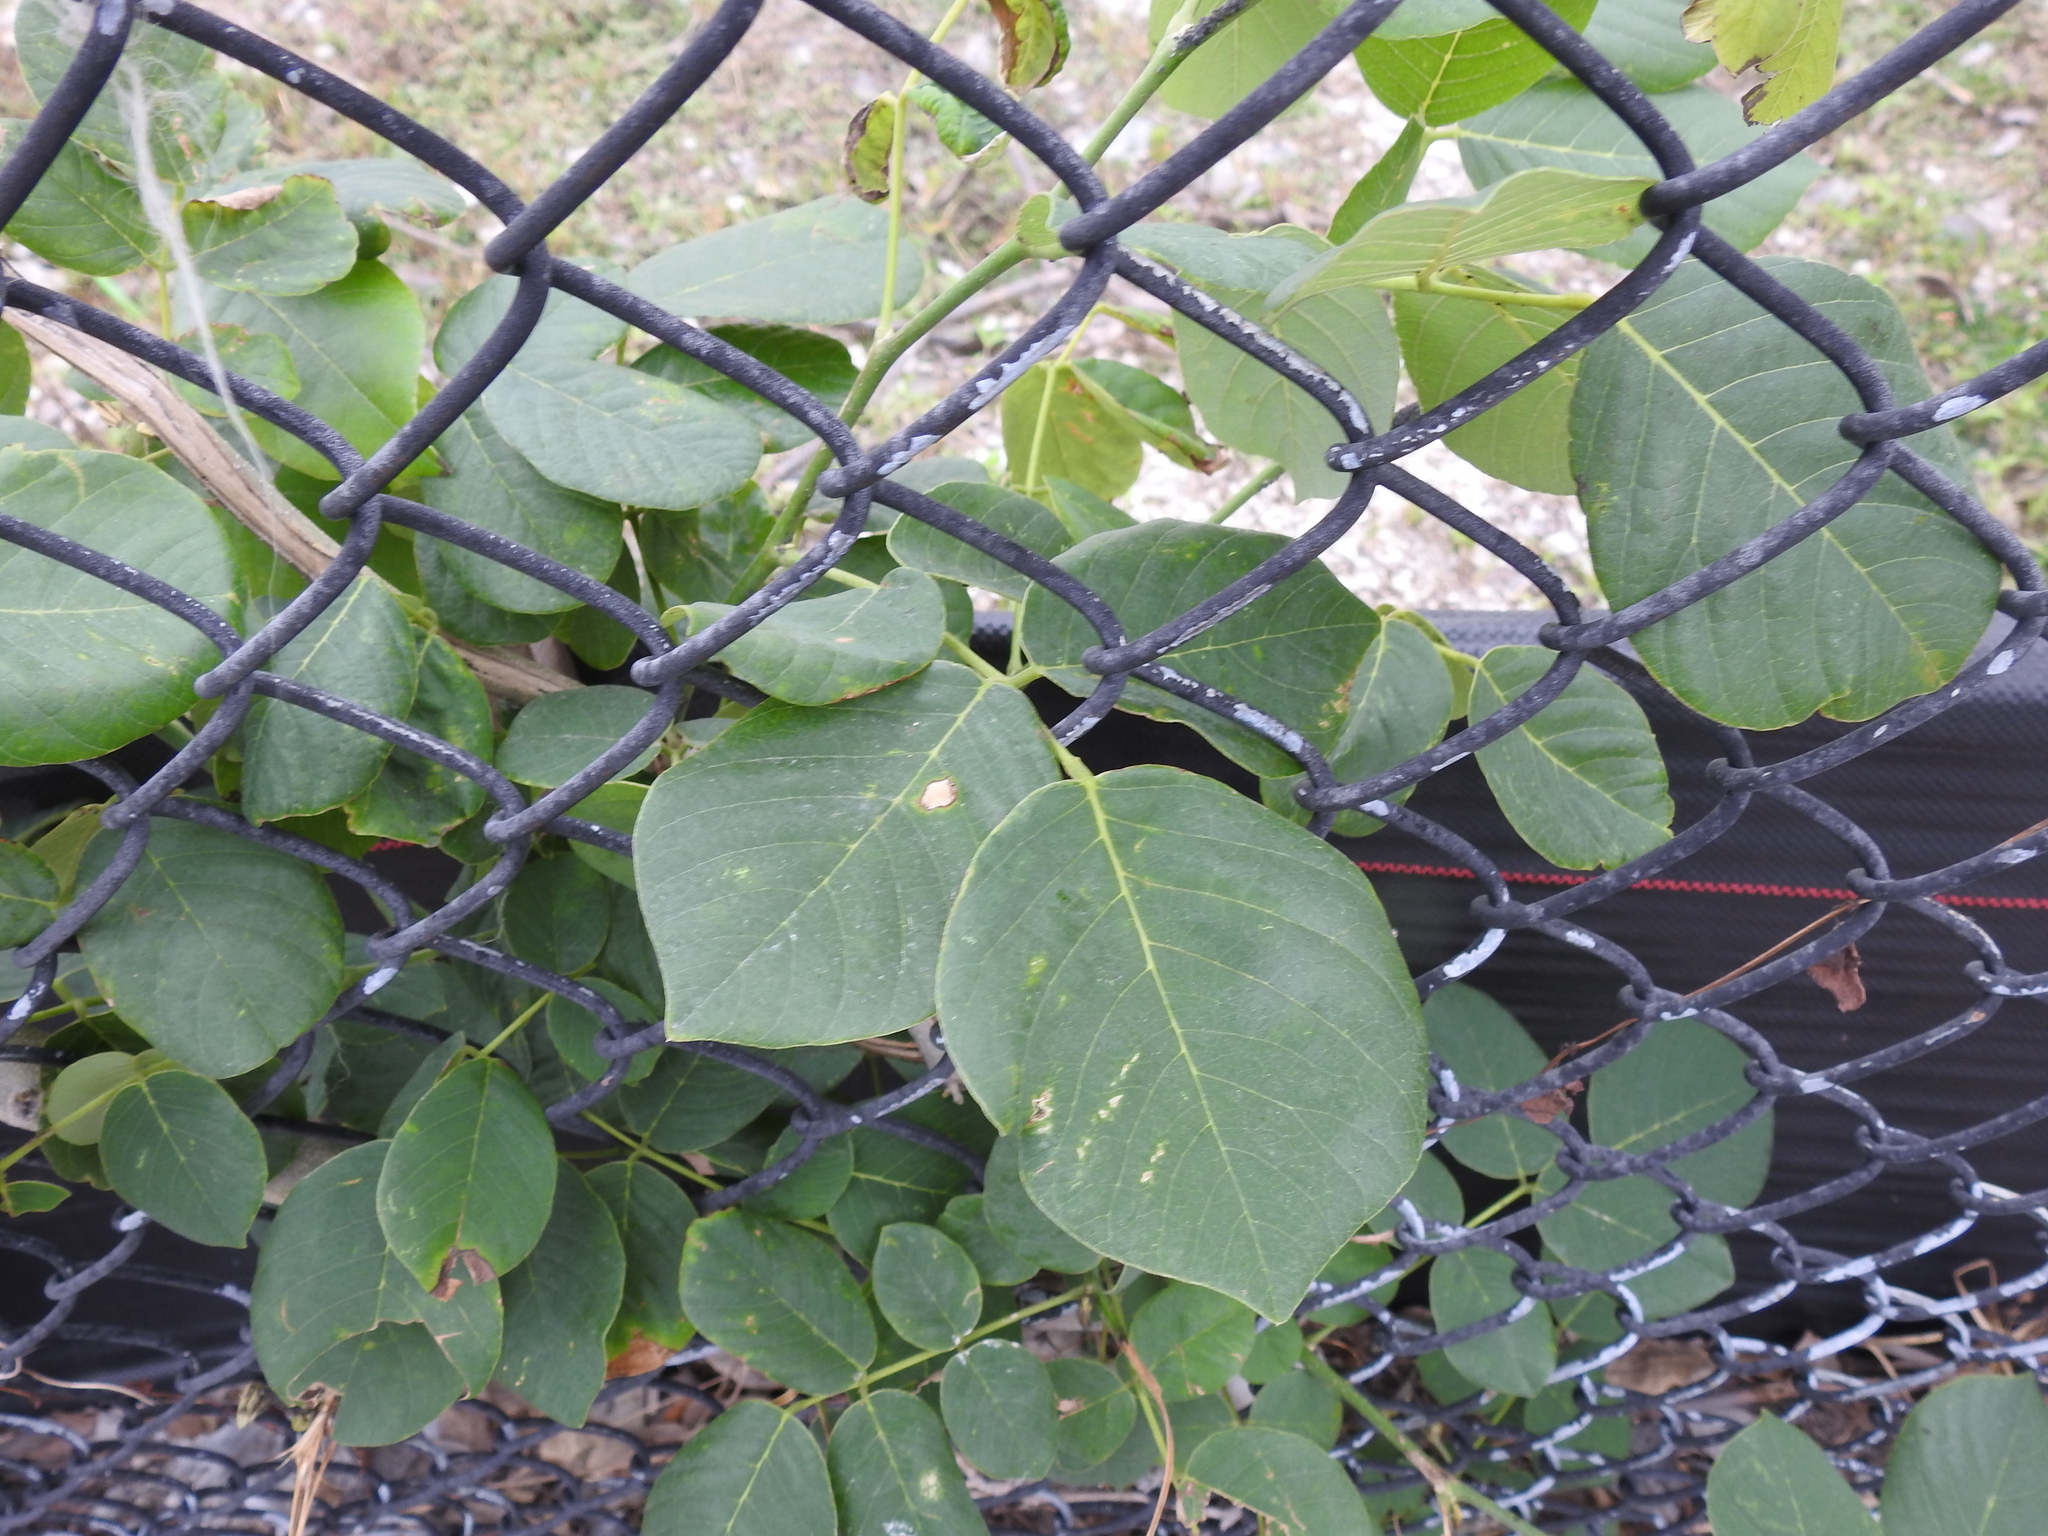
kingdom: Plantae
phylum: Tracheophyta
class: Magnoliopsida
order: Fabales
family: Fabaceae
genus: Piscidia
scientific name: Piscidia piscipula
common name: Florida fishpoison tree
